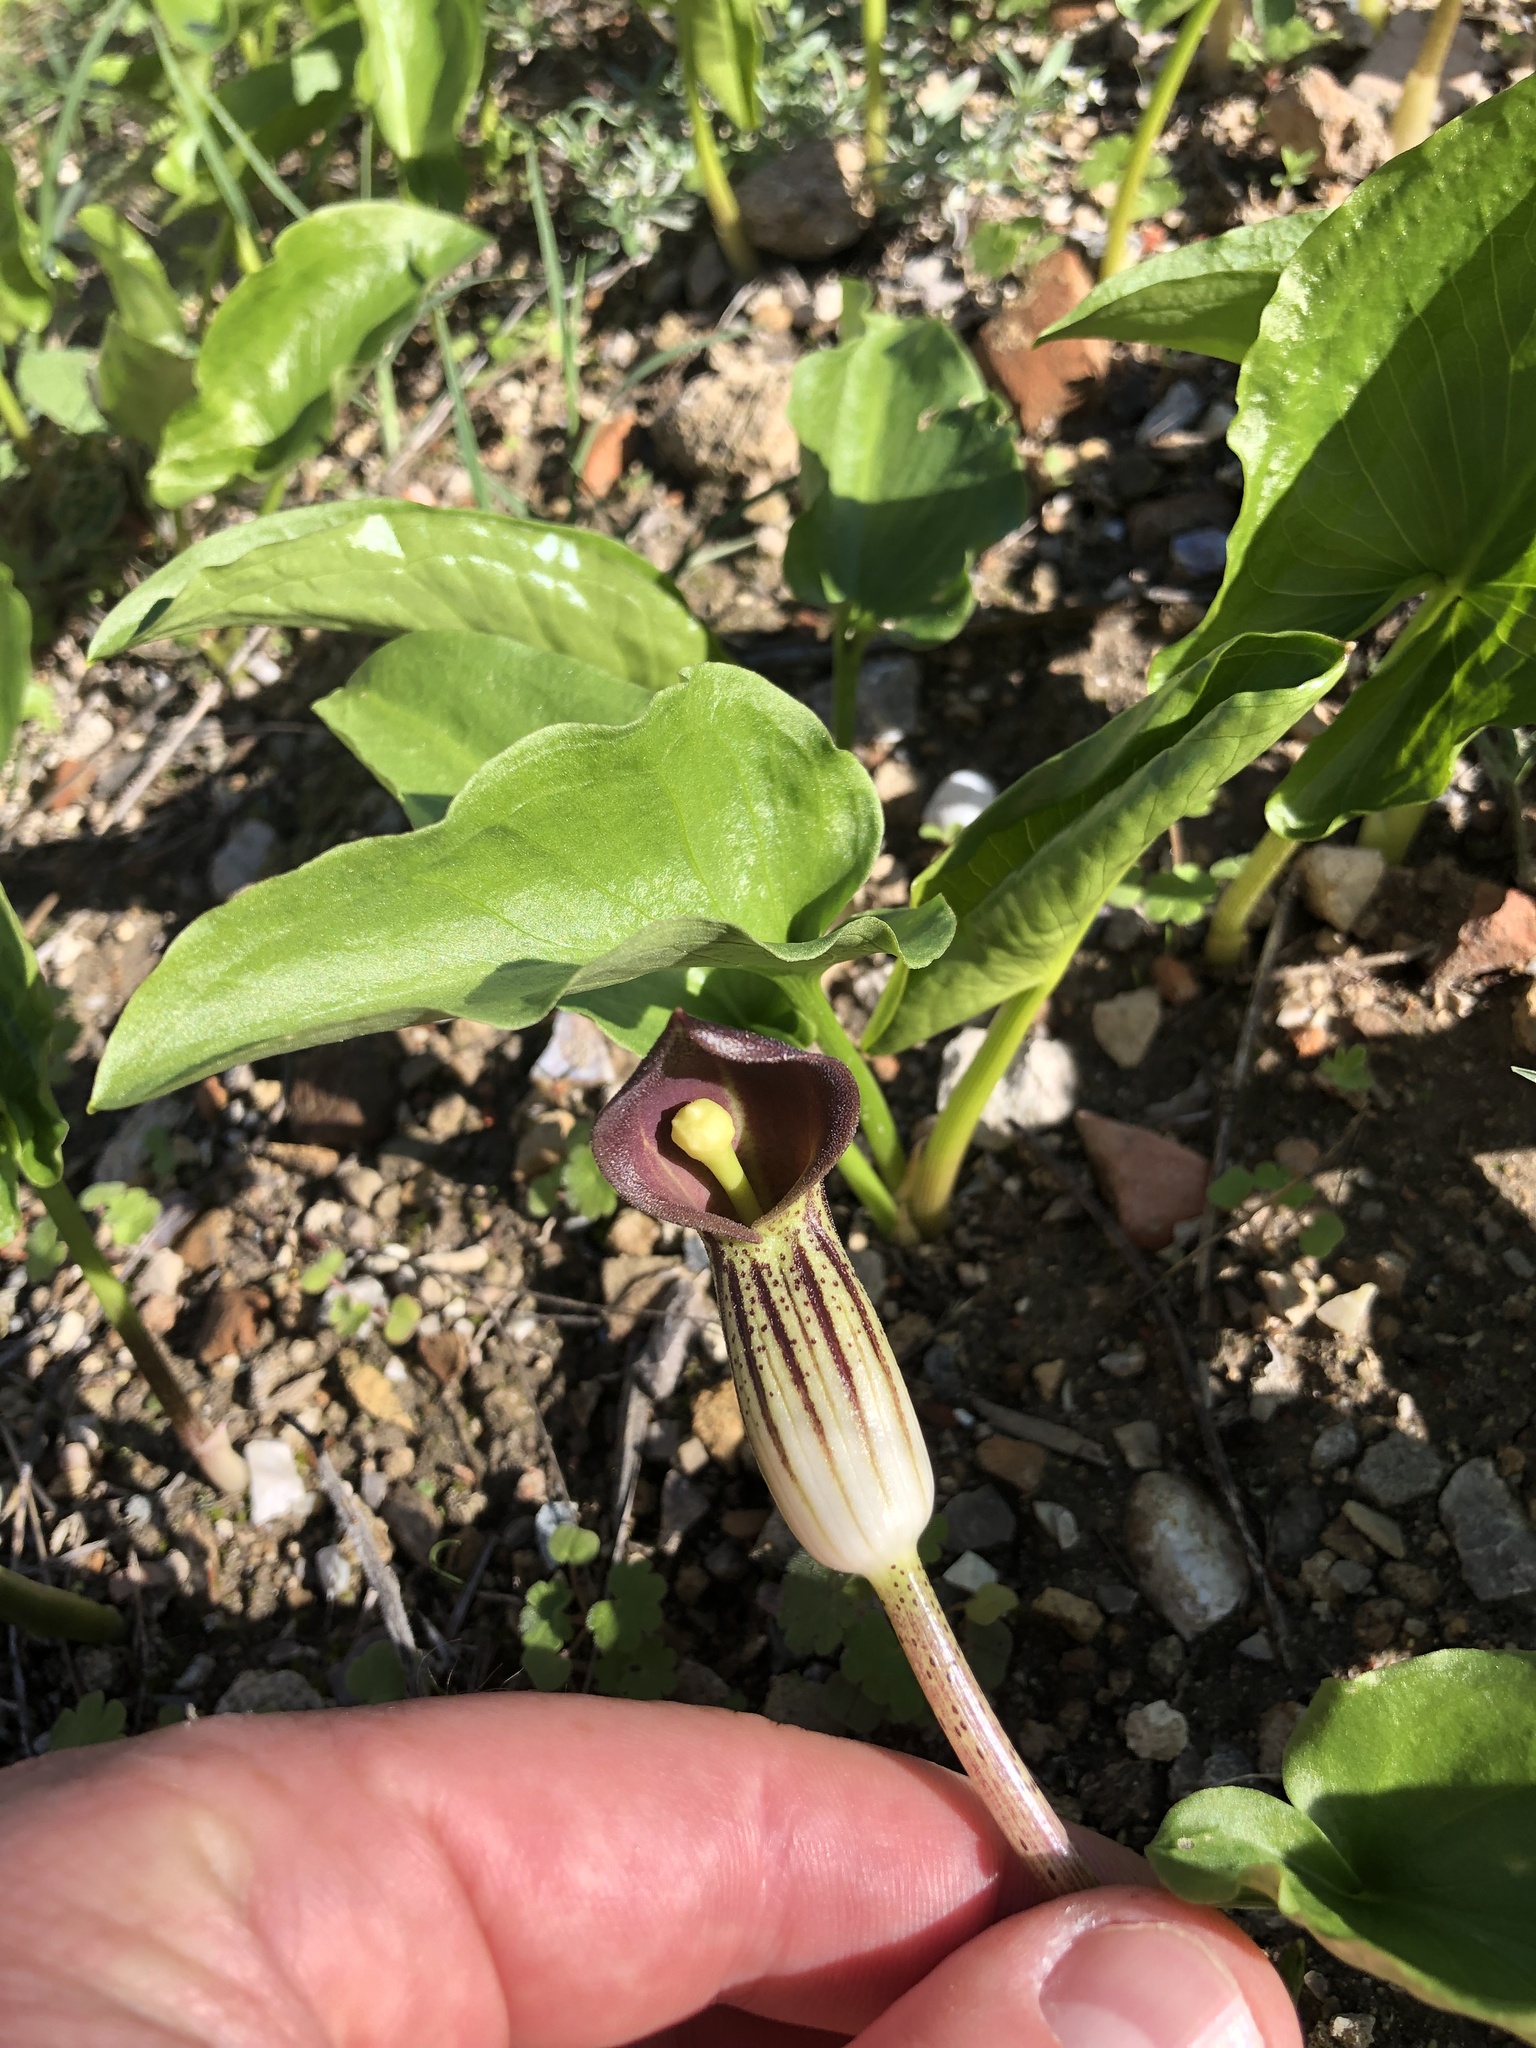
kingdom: Plantae
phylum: Tracheophyta
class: Liliopsida
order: Alismatales
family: Araceae
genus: Arisarum
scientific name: Arisarum simorrhinum
